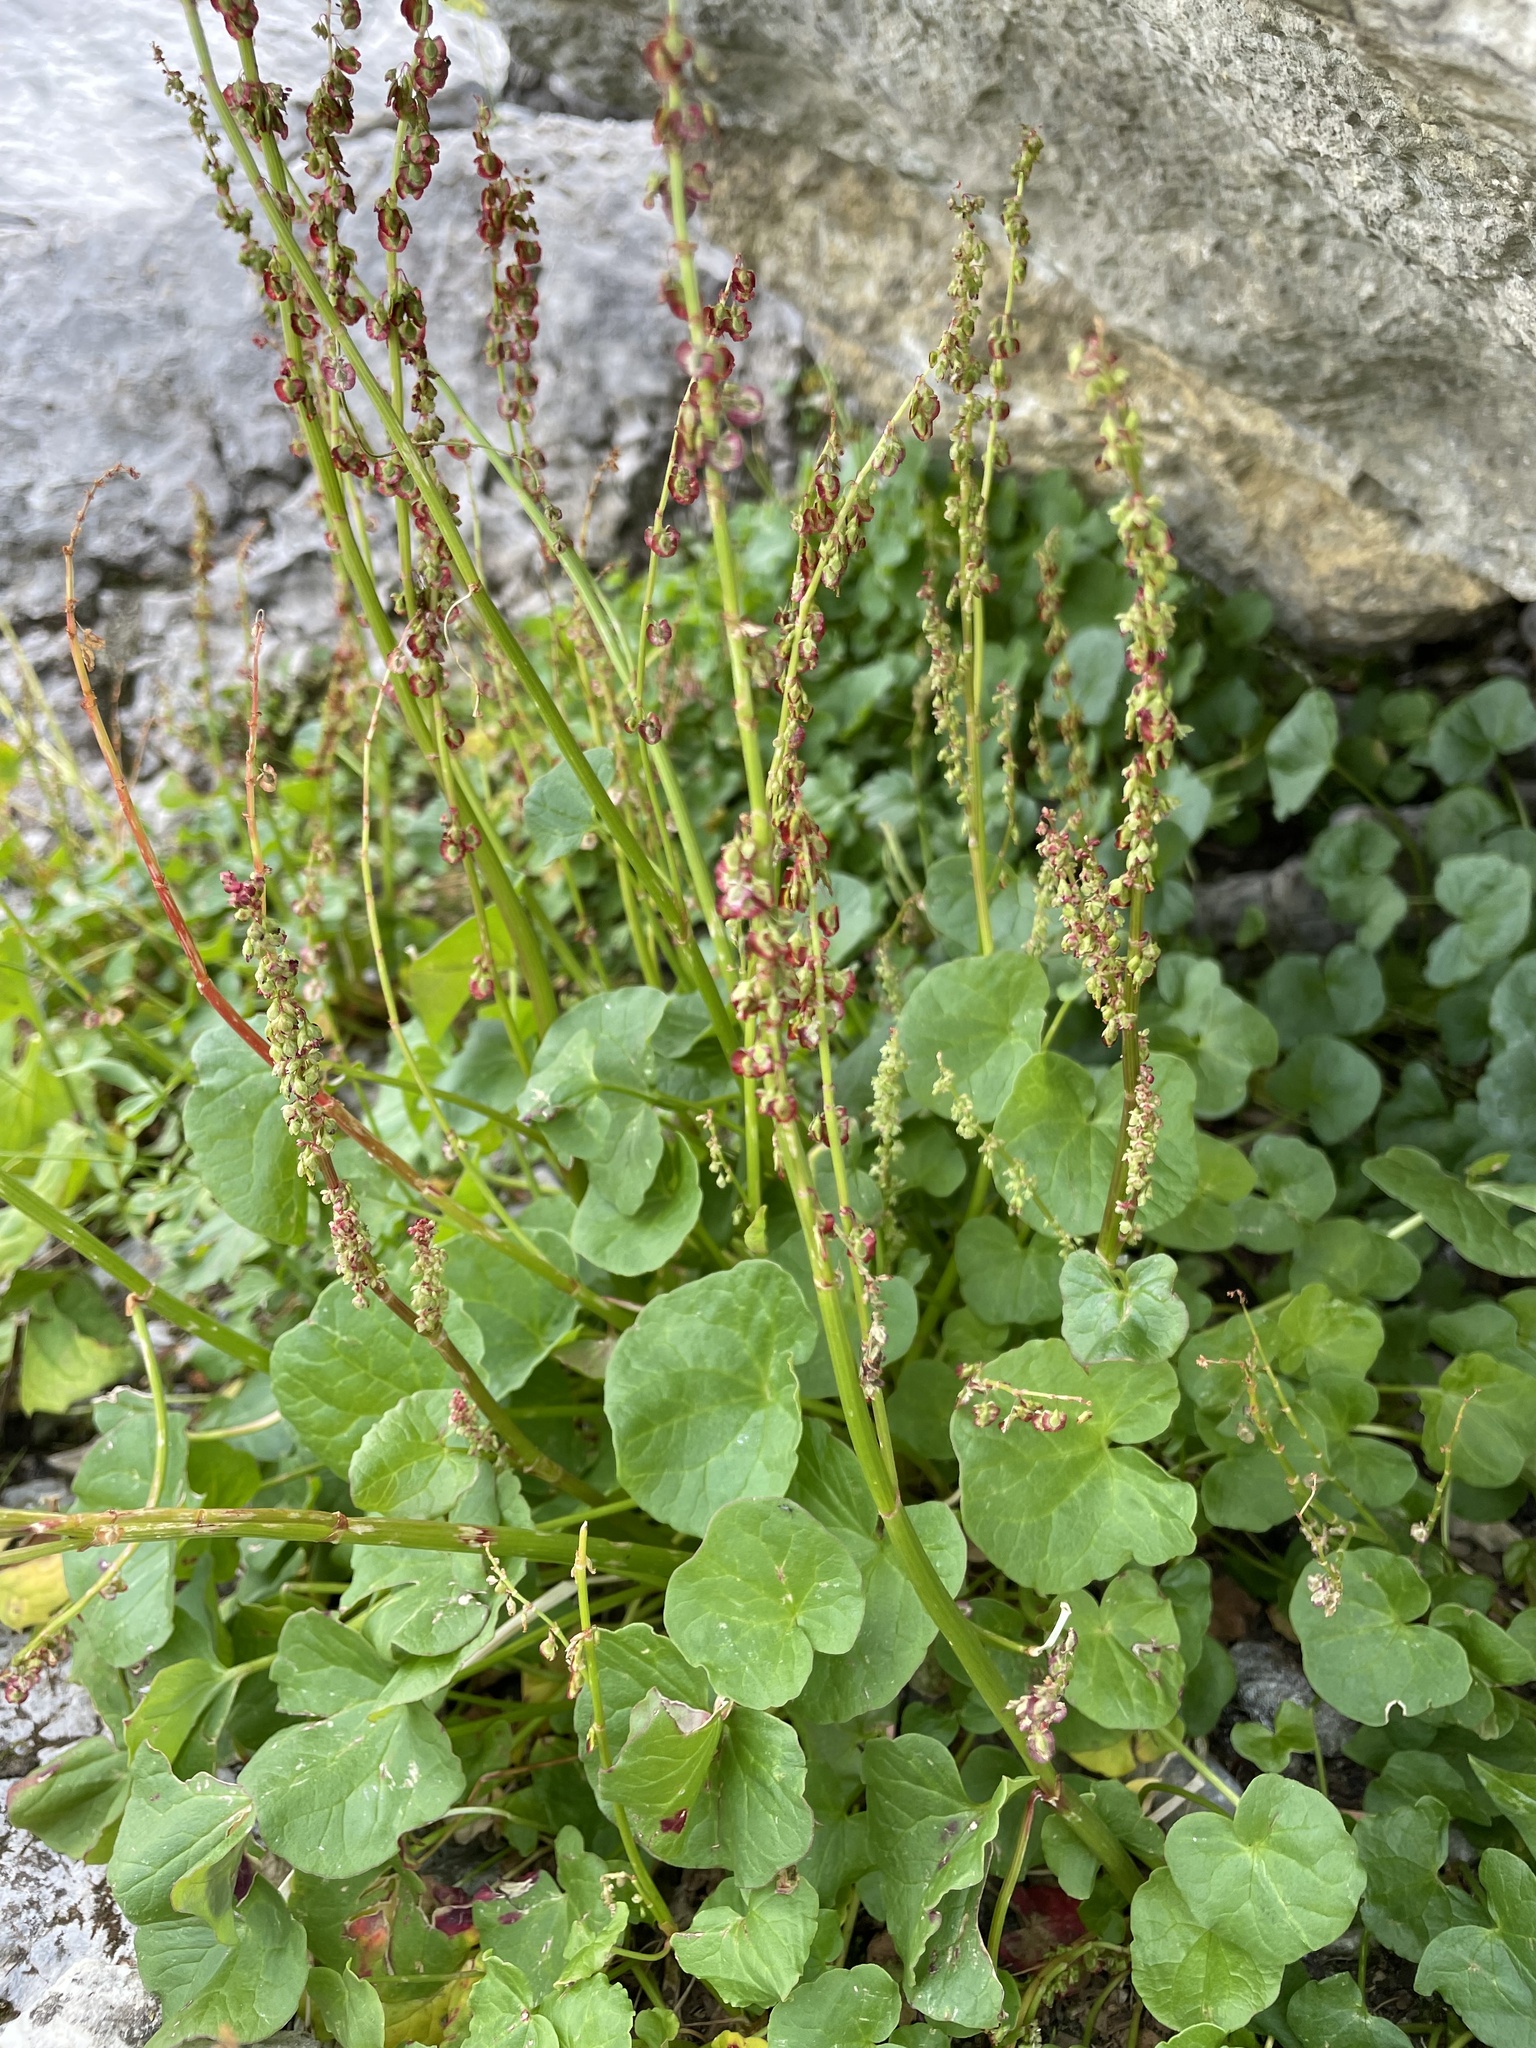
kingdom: Plantae
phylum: Tracheophyta
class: Magnoliopsida
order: Caryophyllales
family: Polygonaceae
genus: Oxyria
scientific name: Oxyria digyna
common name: Alpine mountain-sorrel
